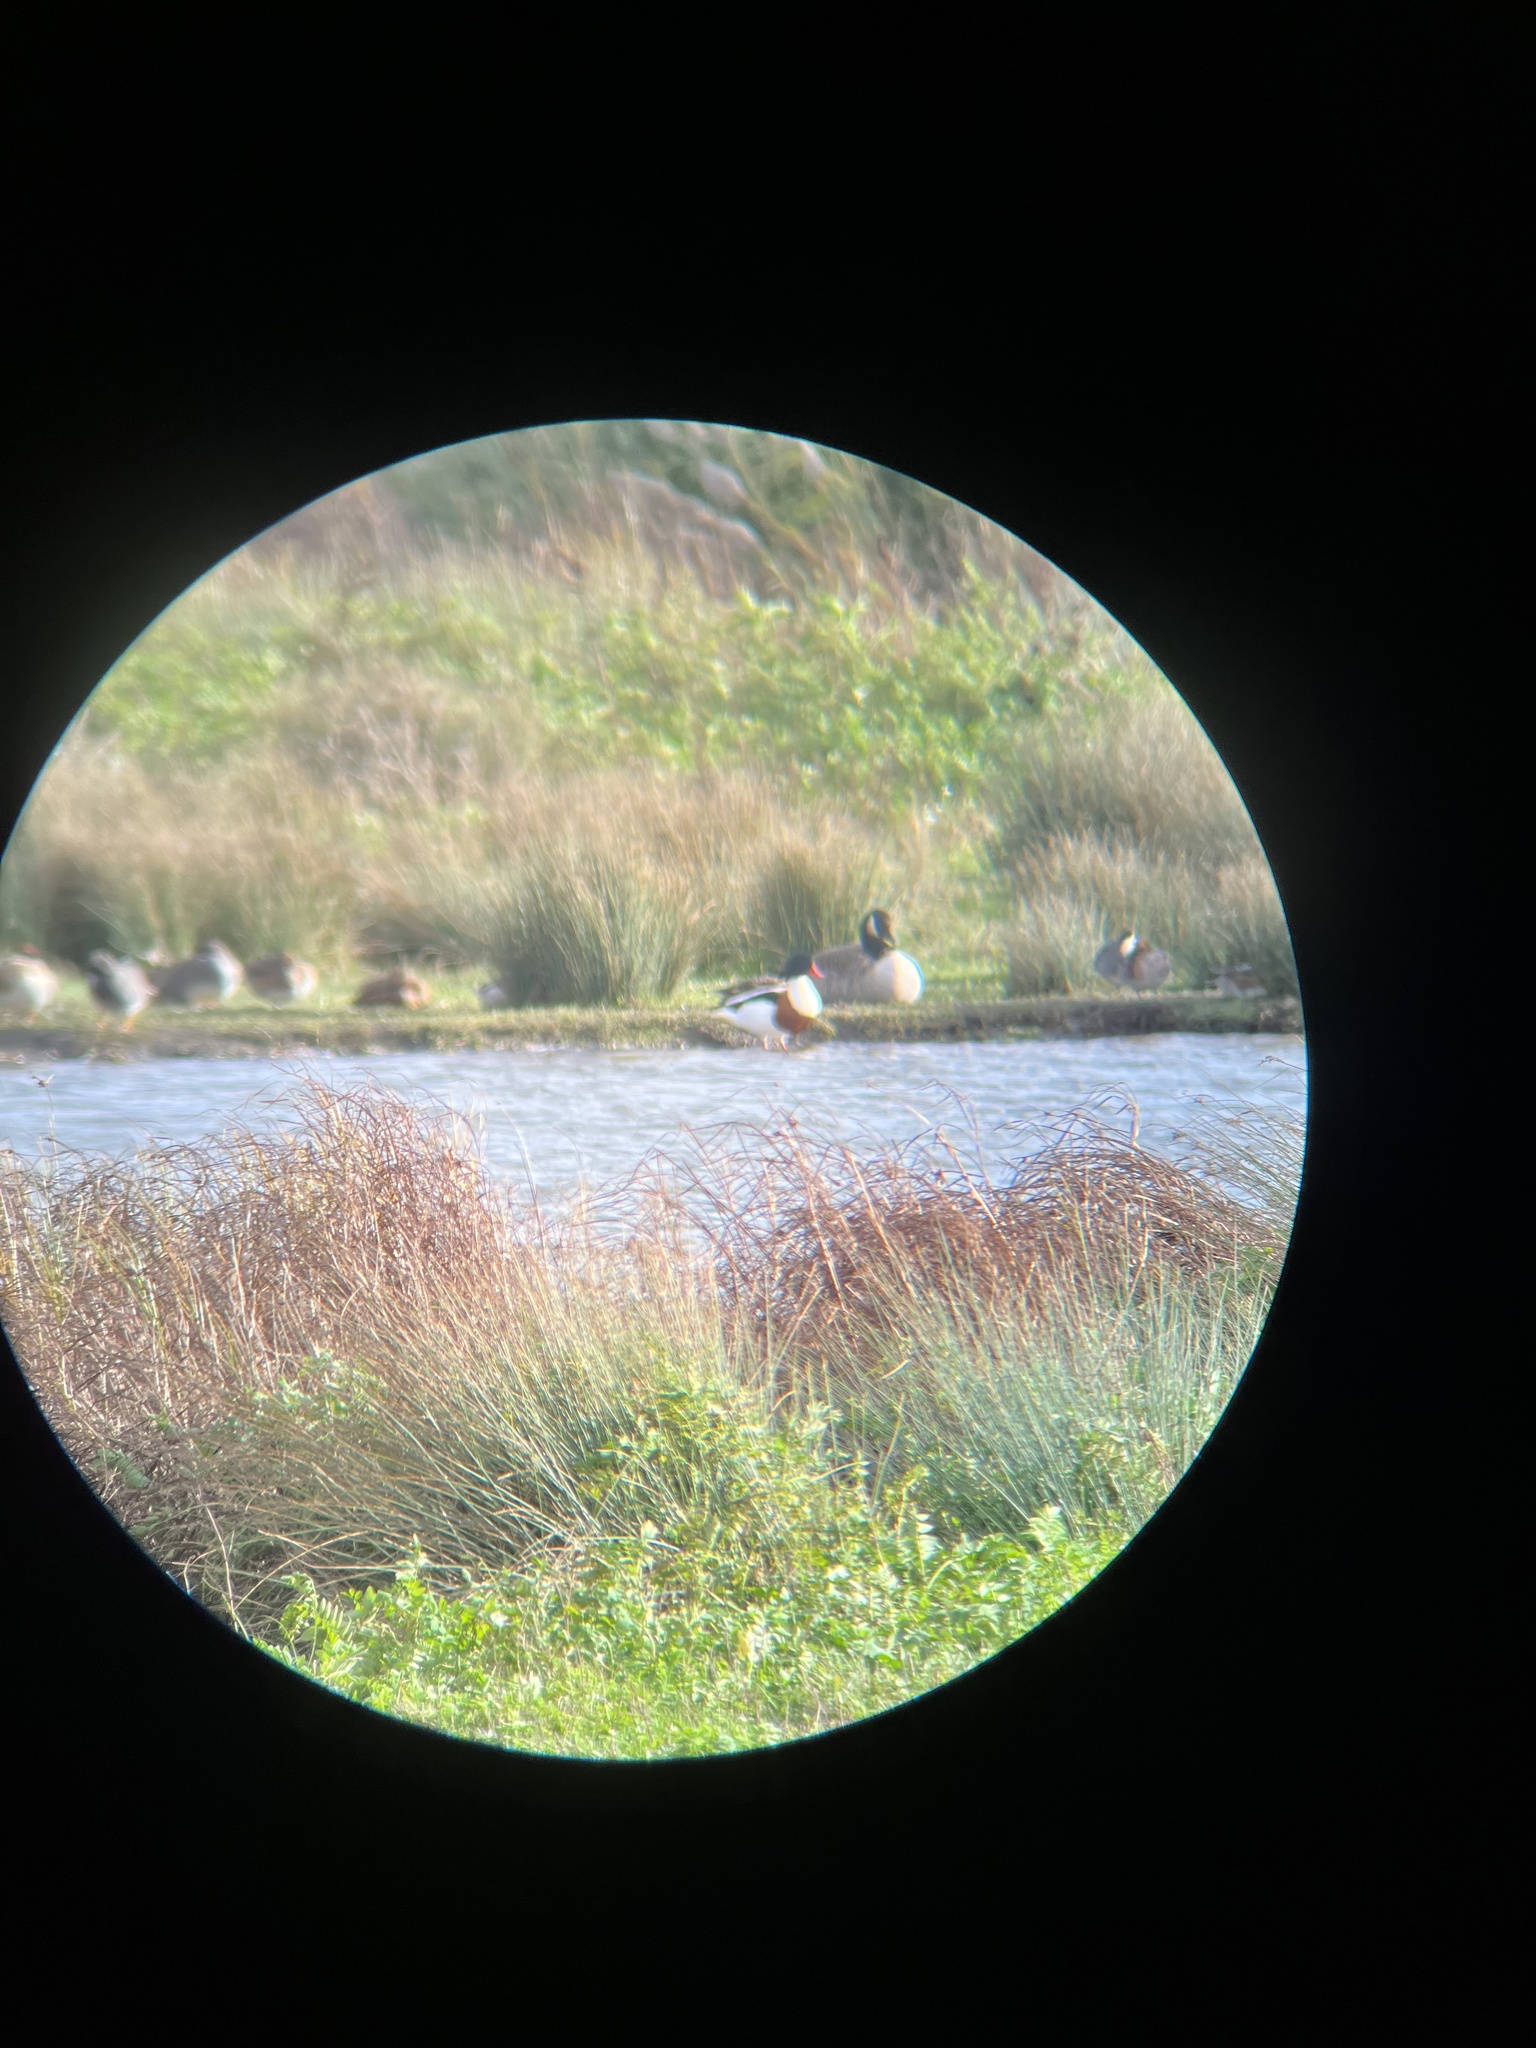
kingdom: Animalia
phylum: Chordata
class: Aves
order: Anseriformes
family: Anatidae
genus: Tadorna
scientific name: Tadorna tadorna
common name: Common shelduck
